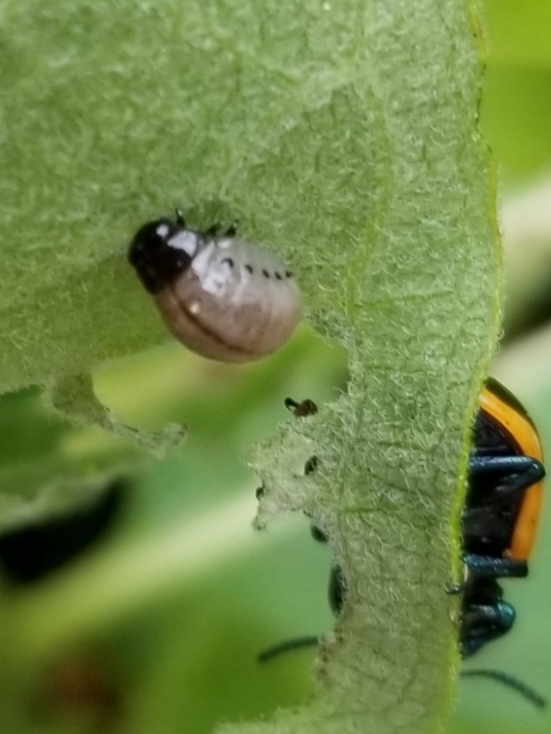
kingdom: Animalia
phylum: Arthropoda
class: Insecta
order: Coleoptera
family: Chrysomelidae
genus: Labidomera
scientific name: Labidomera clivicollis
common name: Swamp milkweed leaf beetle
